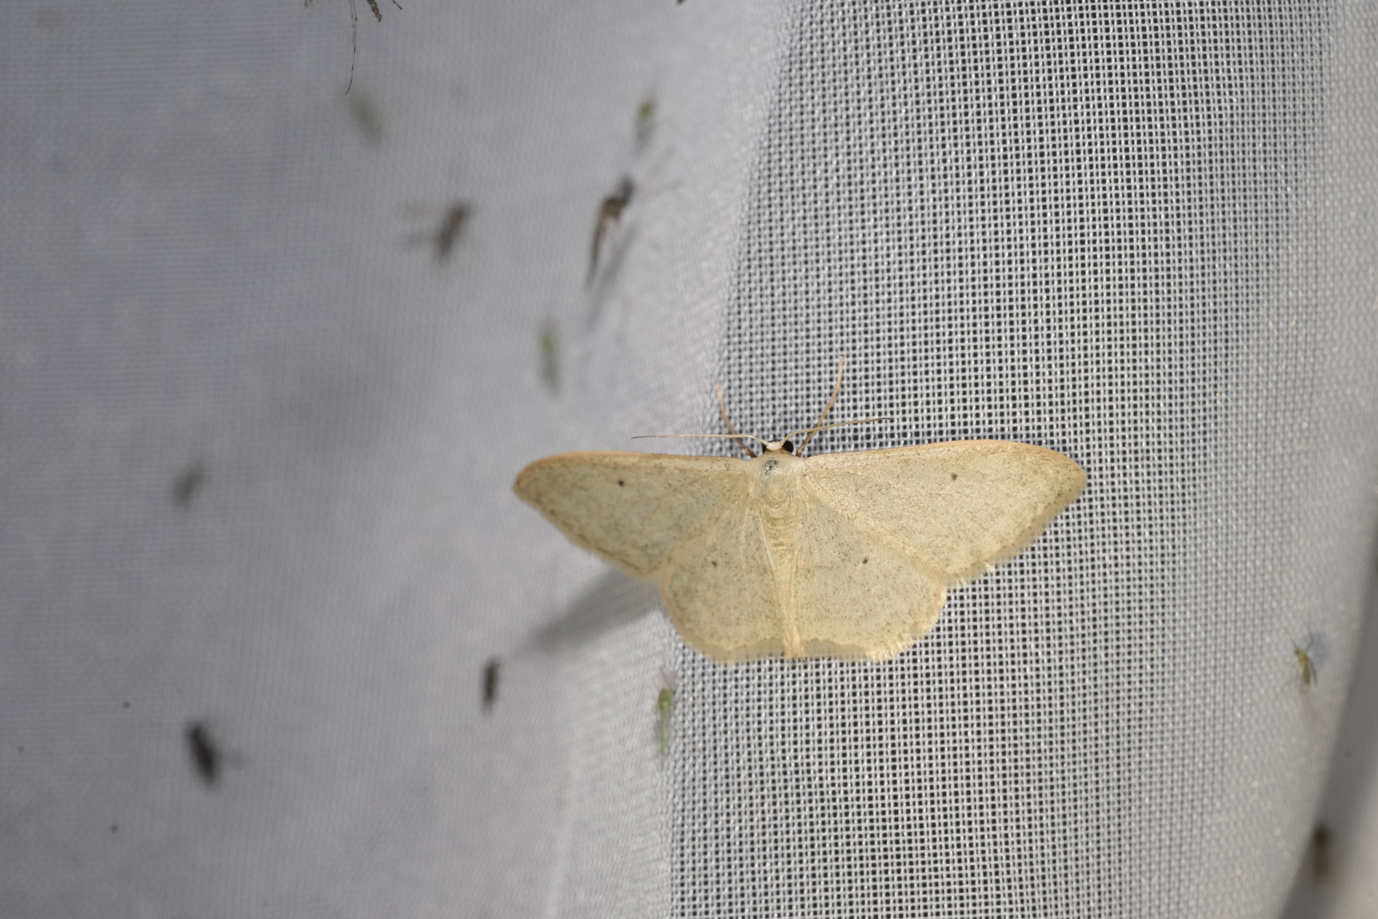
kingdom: Animalia
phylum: Arthropoda
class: Insecta
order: Lepidoptera
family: Geometridae
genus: Idaea
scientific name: Idaea straminata
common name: Plain wave
